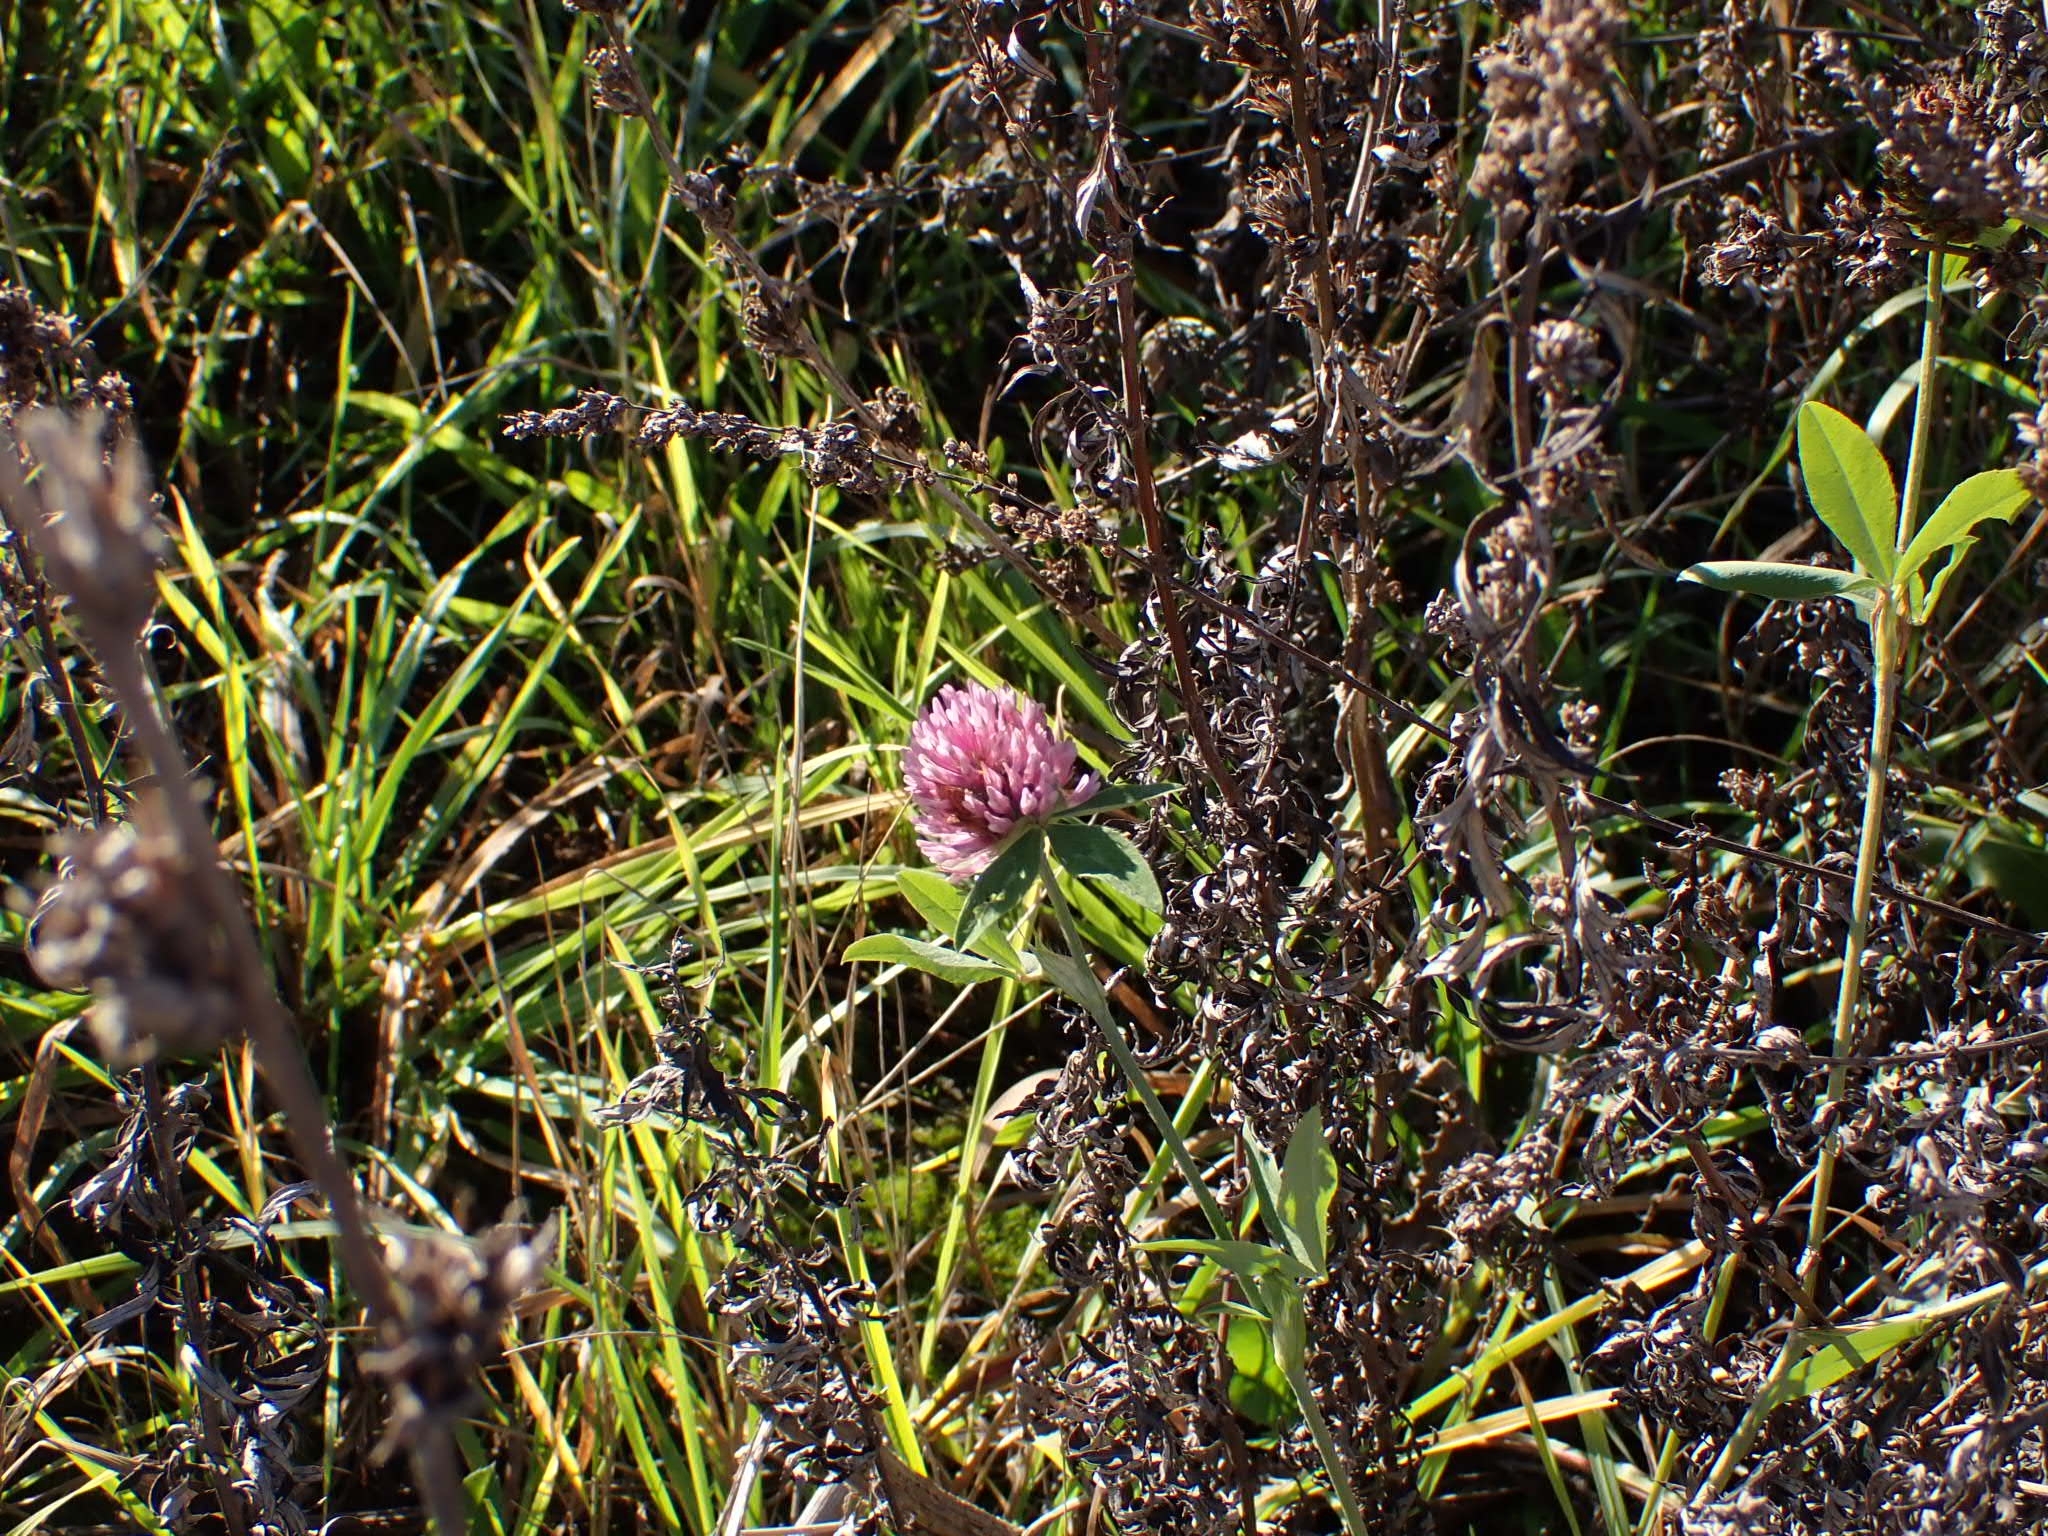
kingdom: Plantae
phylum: Tracheophyta
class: Magnoliopsida
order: Fabales
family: Fabaceae
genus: Trifolium
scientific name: Trifolium pratense
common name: Red clover
